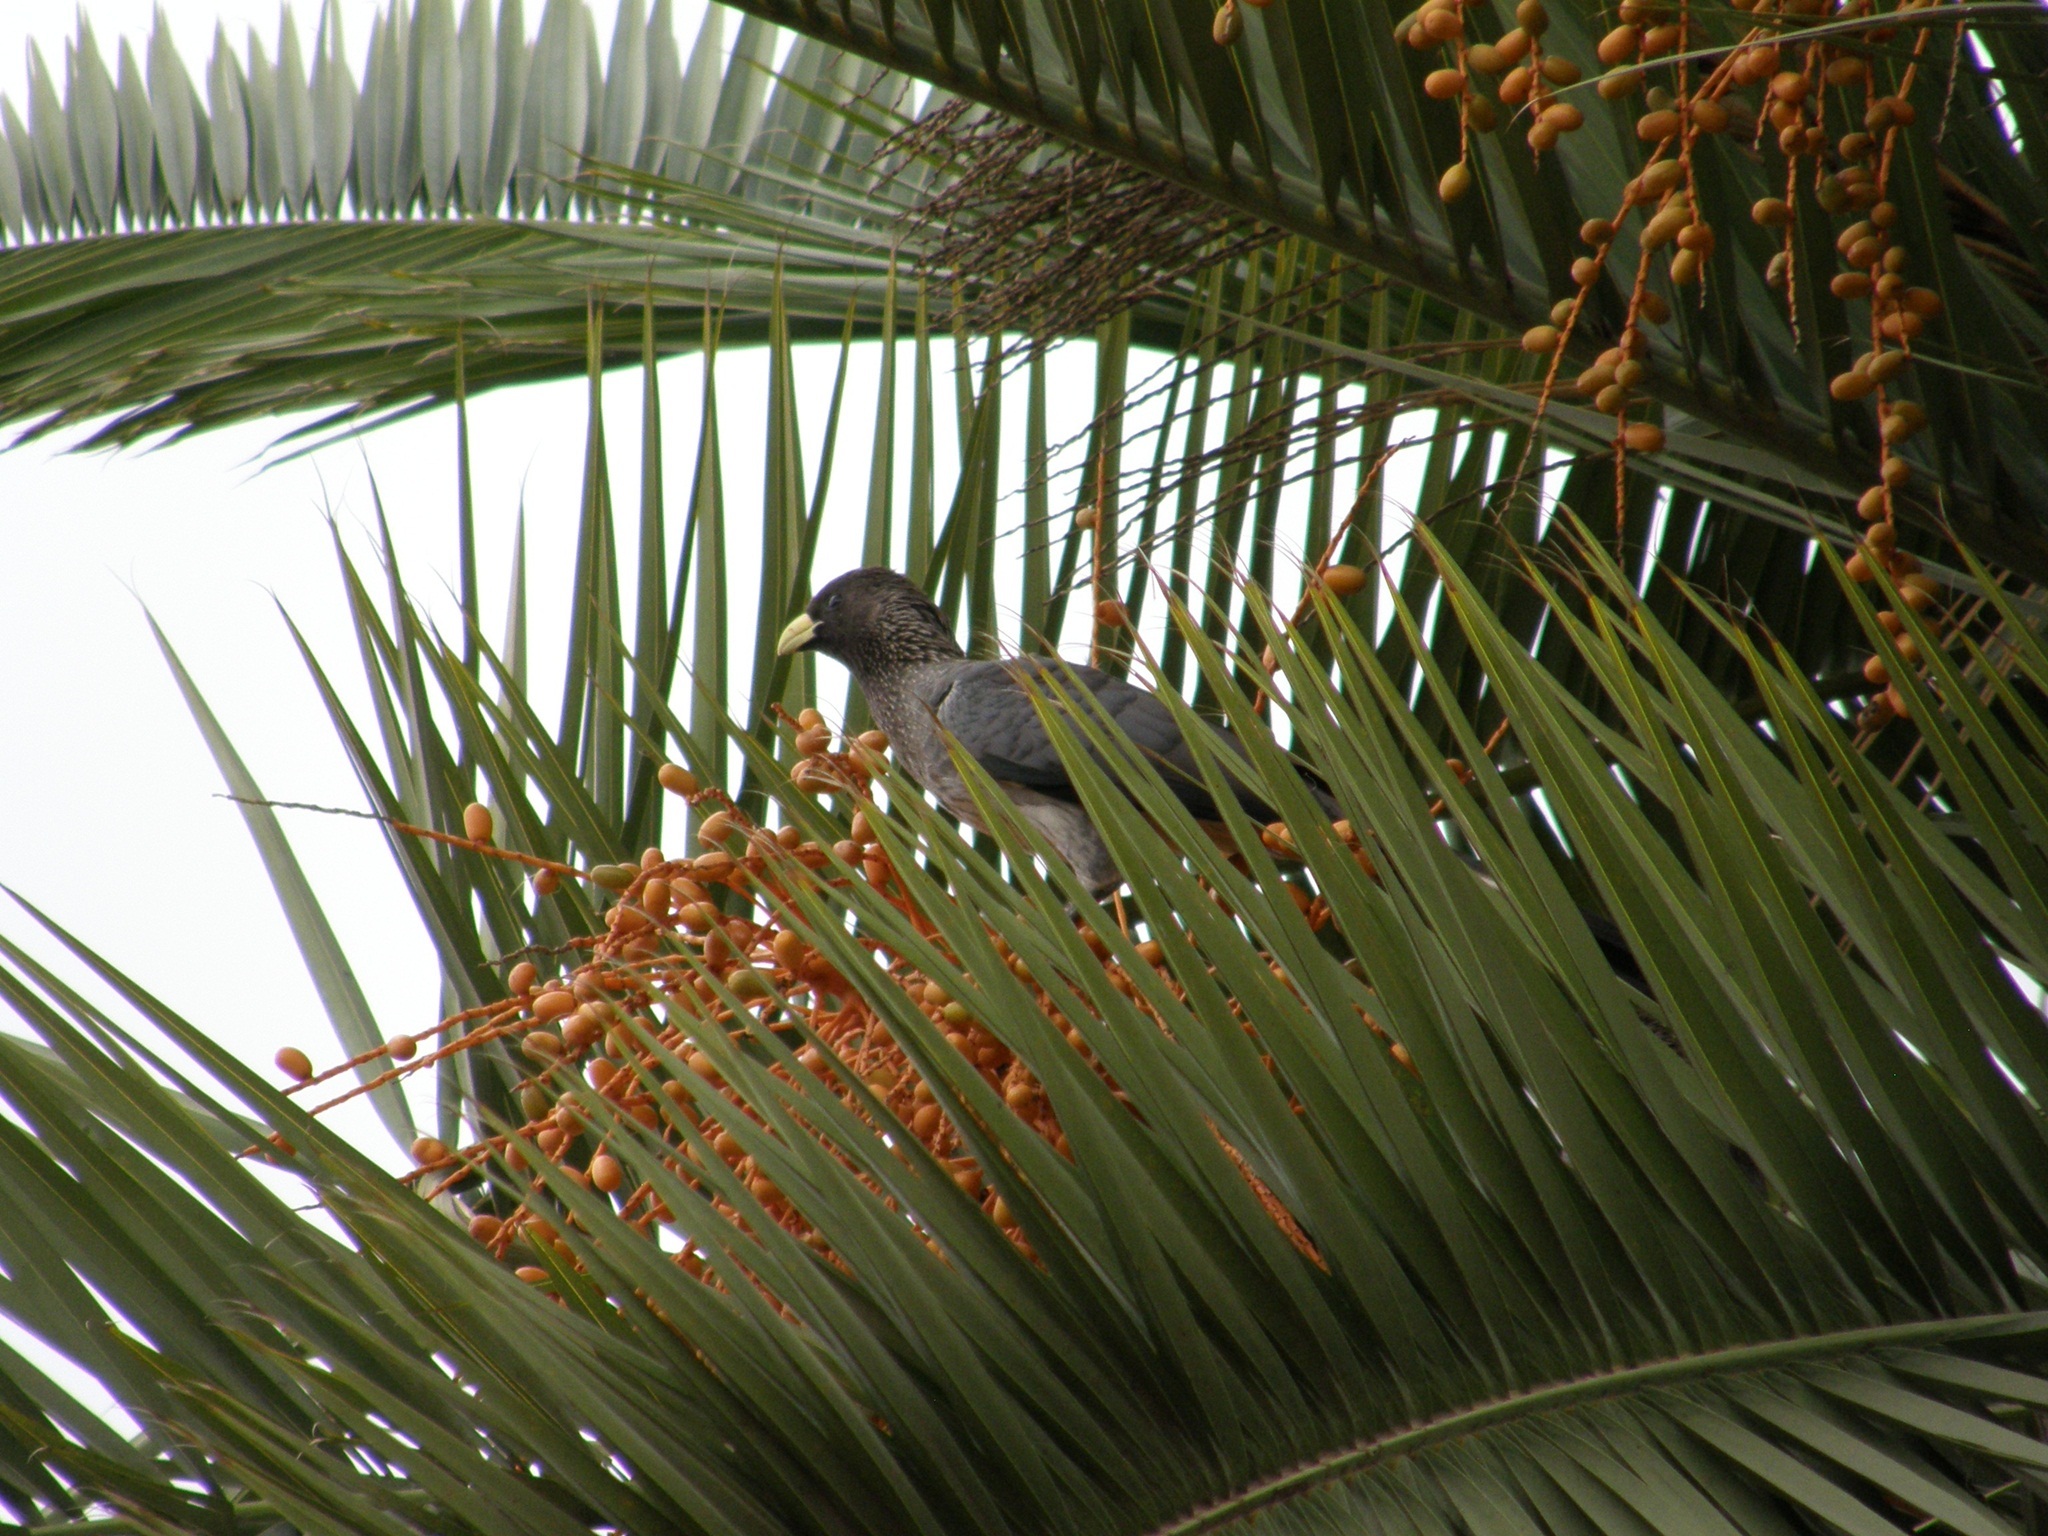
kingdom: Animalia
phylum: Chordata
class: Aves
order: Musophagiformes
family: Musophagidae
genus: Crinifer
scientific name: Crinifer zonurus
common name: Eastern plantain-eater
